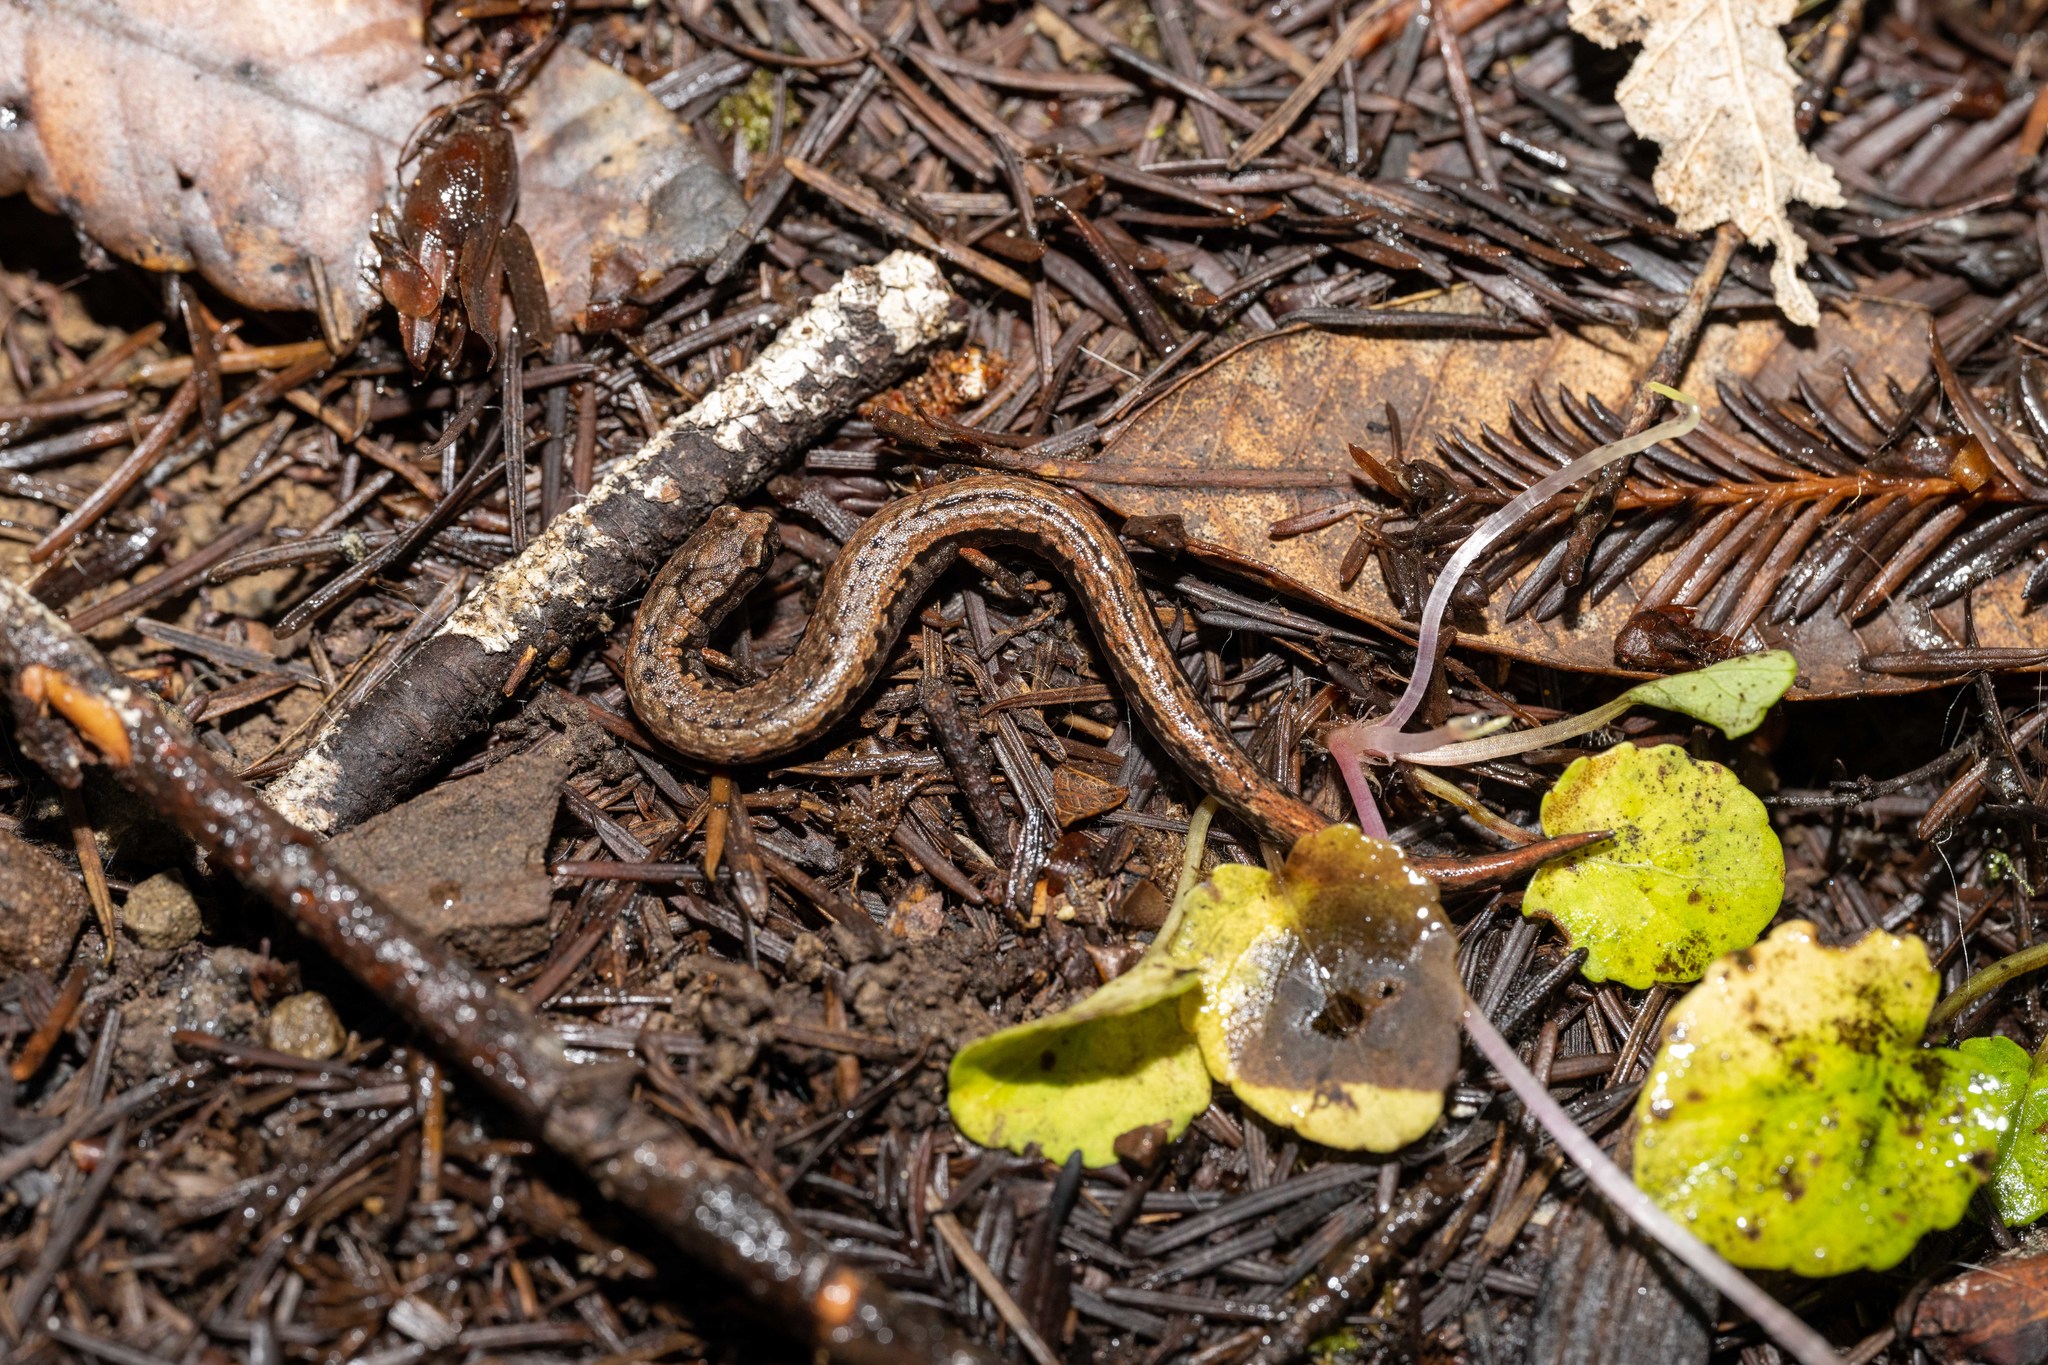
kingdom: Animalia
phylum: Chordata
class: Amphibia
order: Caudata
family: Plethodontidae
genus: Batrachoseps
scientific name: Batrachoseps attenuatus
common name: California slender salamander
